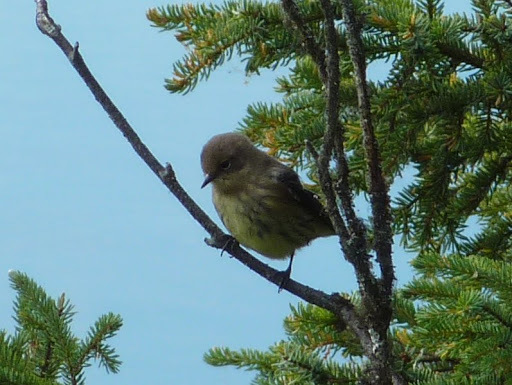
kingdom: Animalia
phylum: Chordata
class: Aves
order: Passeriformes
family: Parulidae
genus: Setophaga
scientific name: Setophaga coronata
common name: Myrtle warbler
